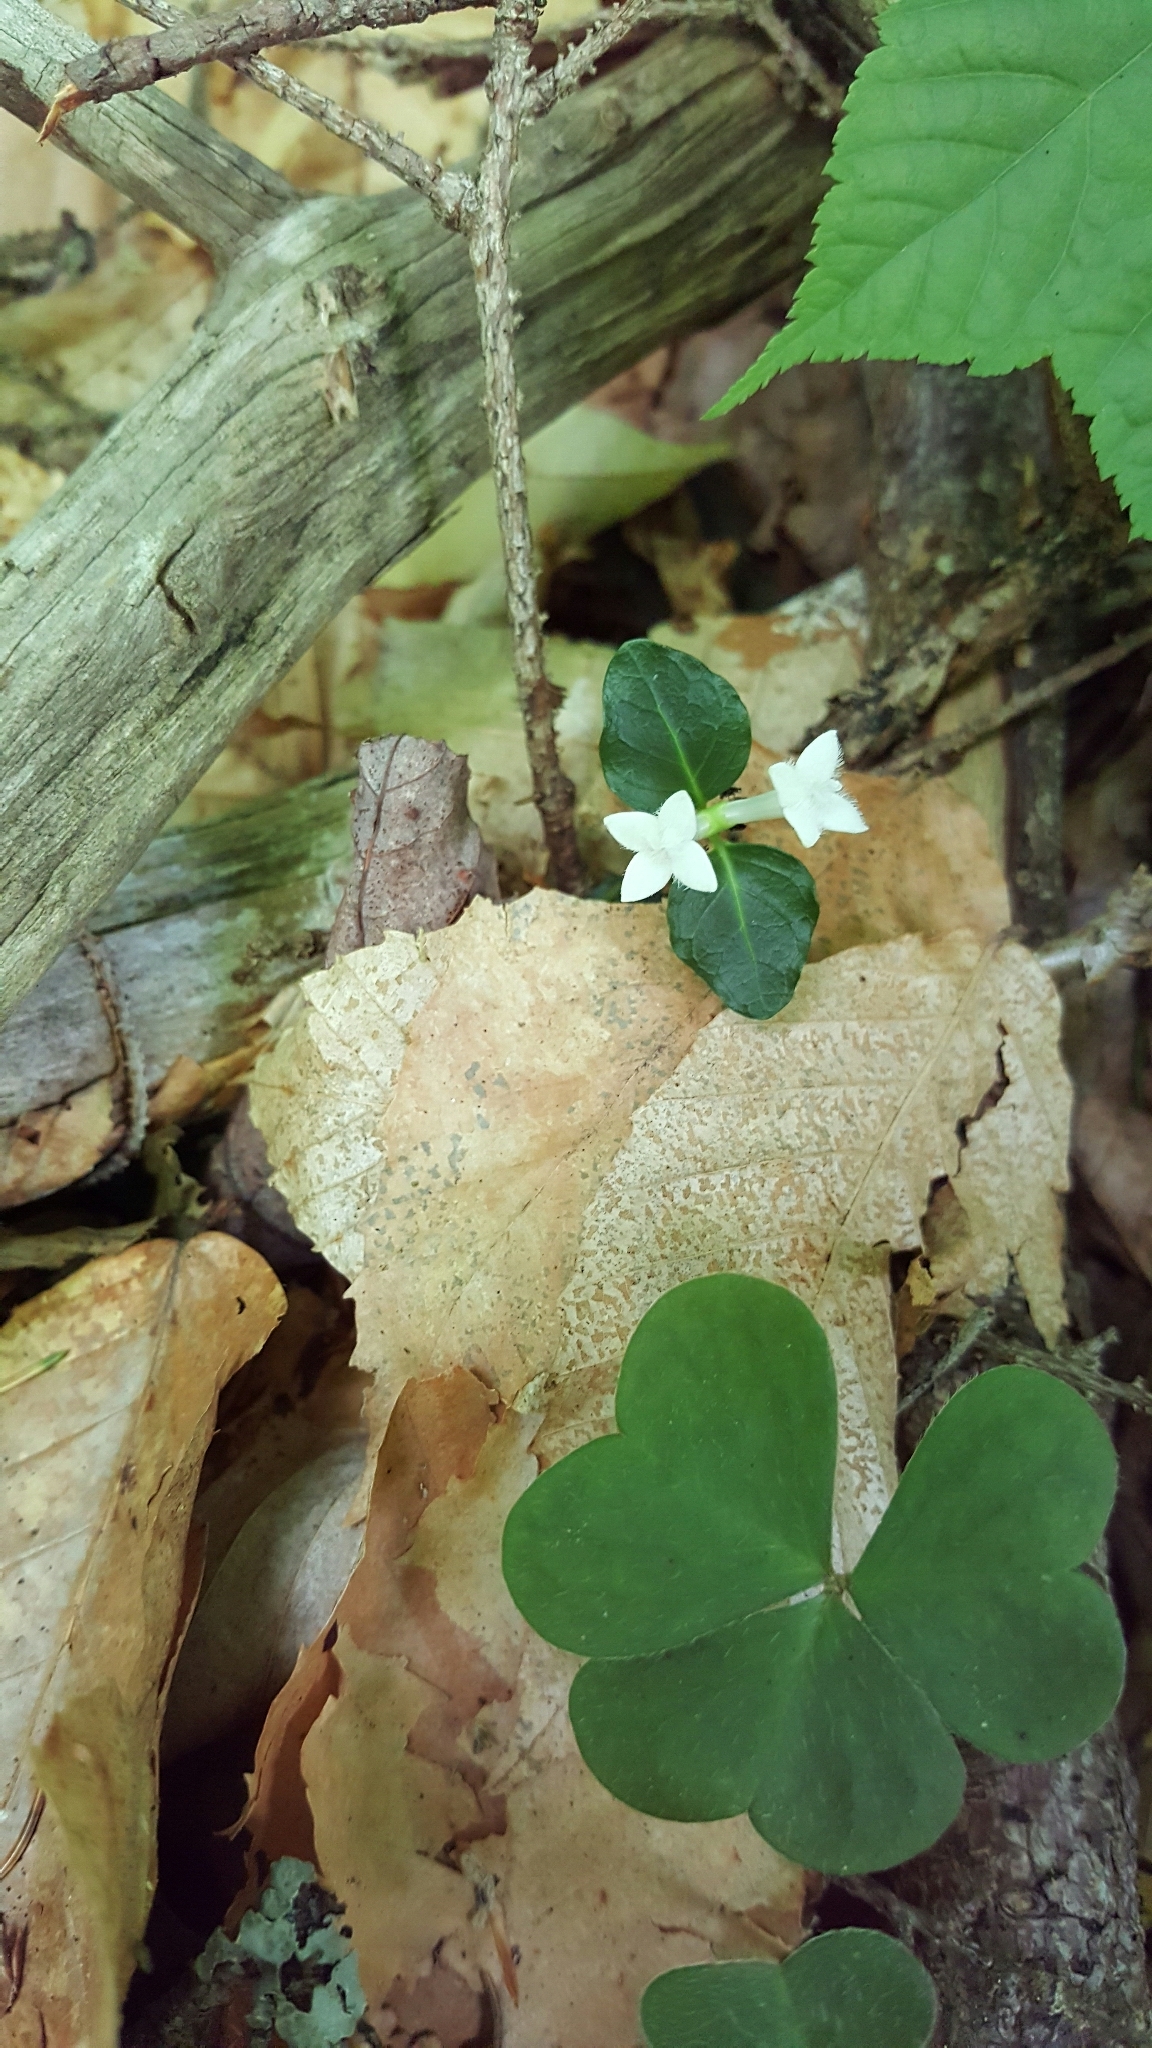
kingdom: Plantae
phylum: Tracheophyta
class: Magnoliopsida
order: Gentianales
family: Rubiaceae
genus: Mitchella
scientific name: Mitchella repens
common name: Partridge-berry
